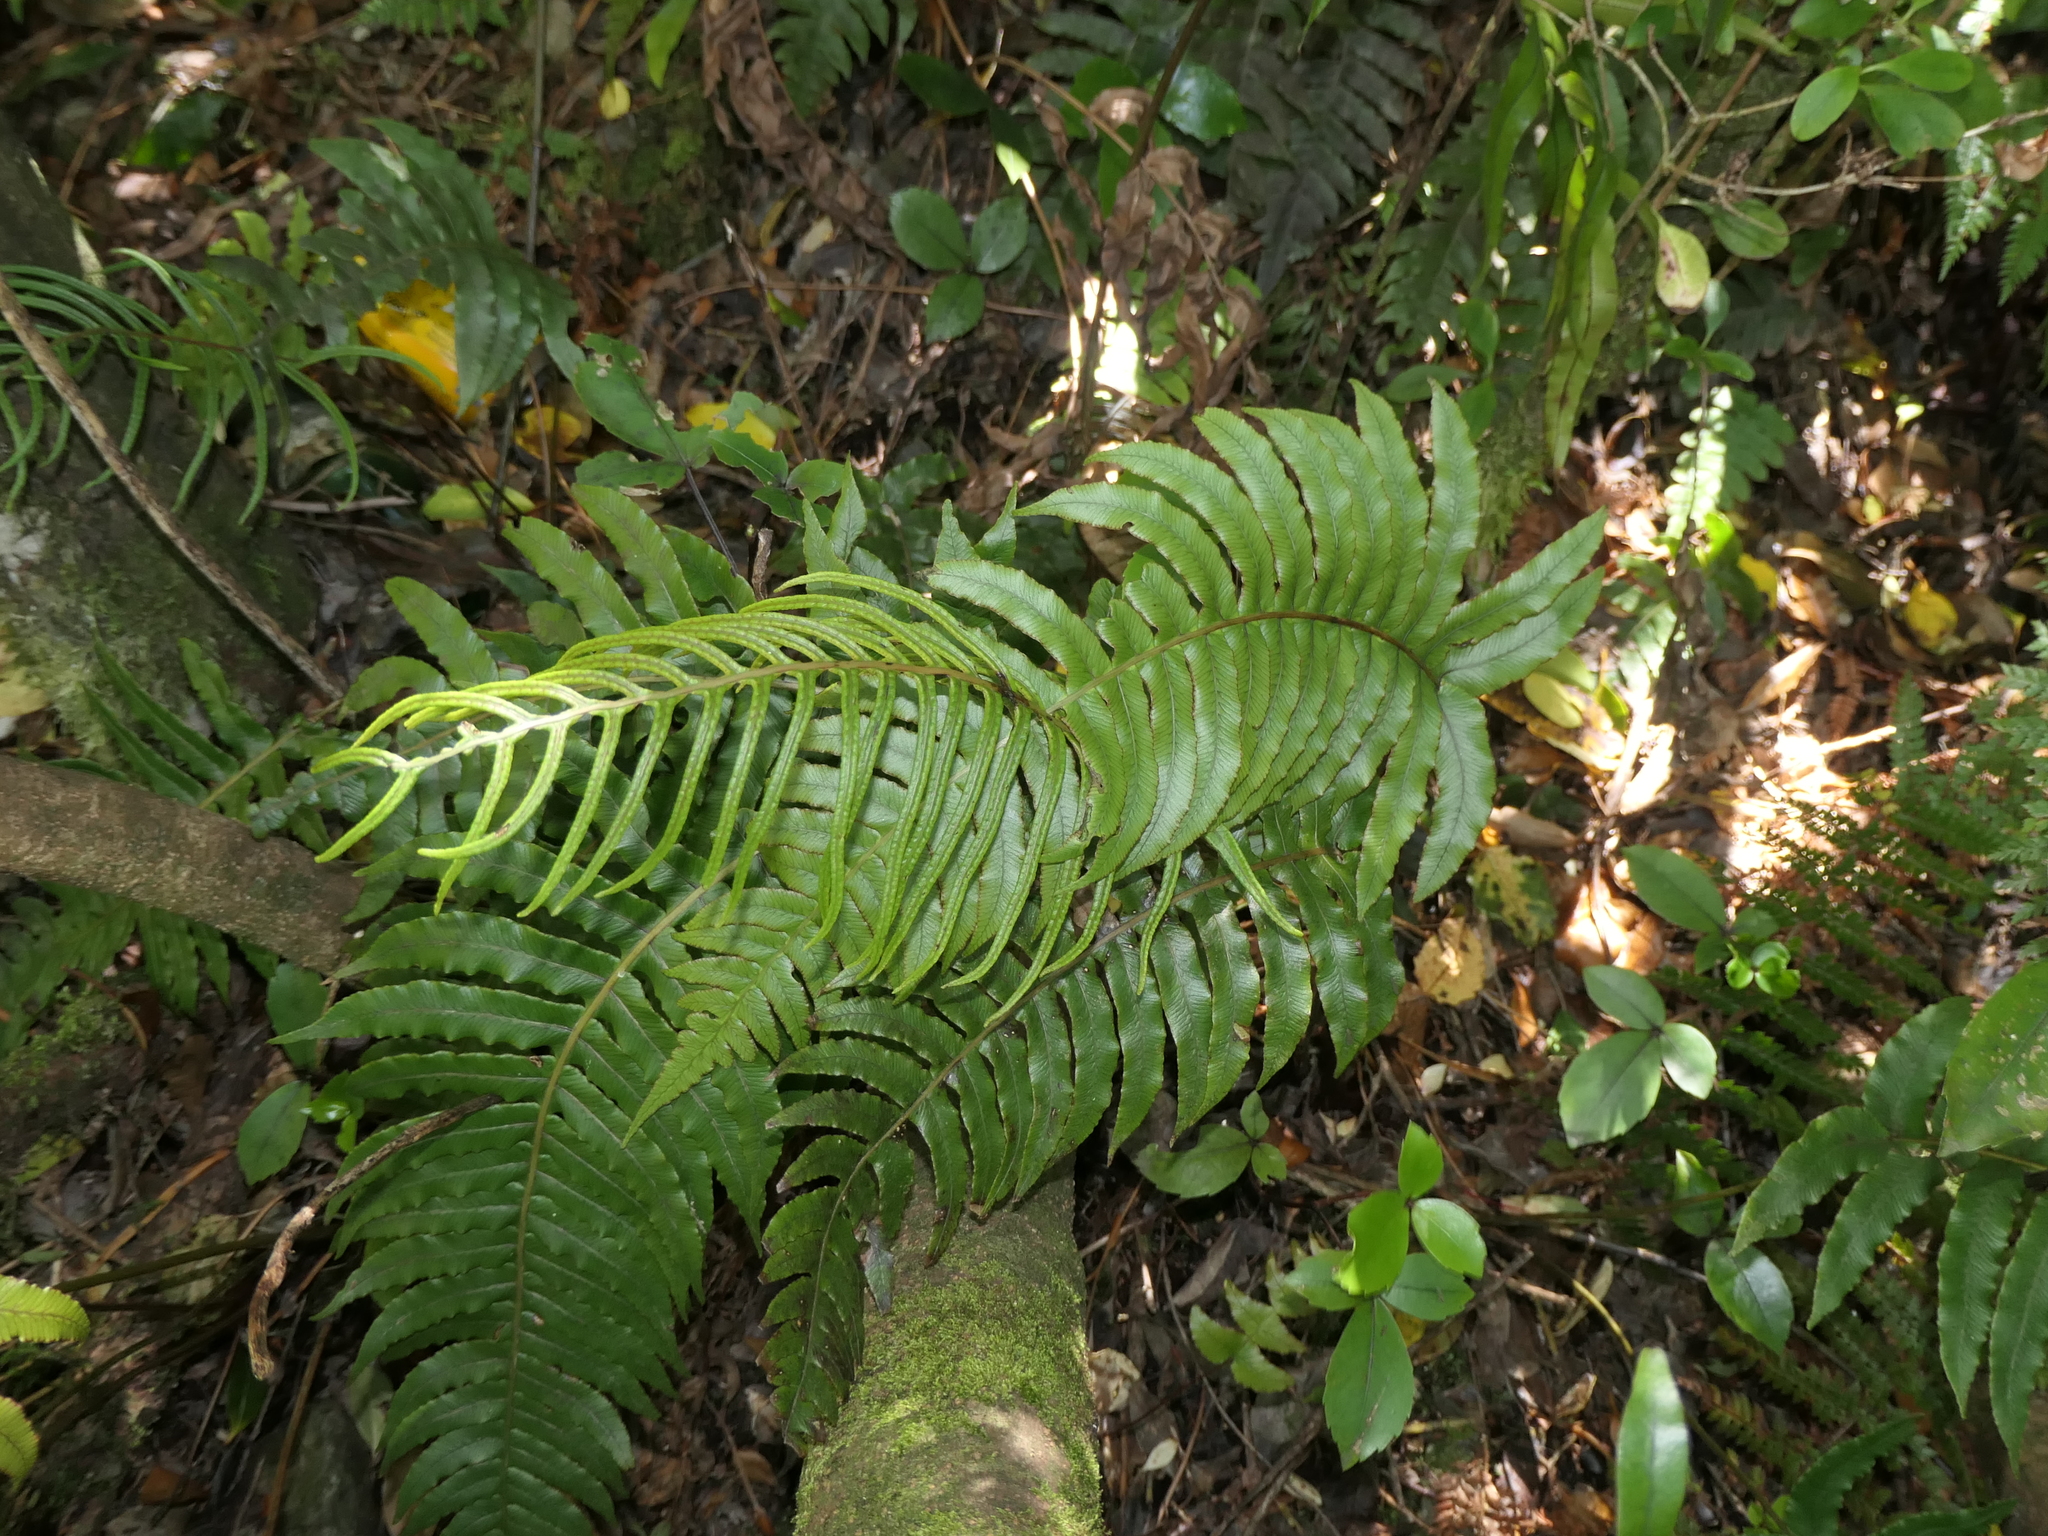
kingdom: Plantae
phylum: Tracheophyta
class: Polypodiopsida
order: Polypodiales
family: Blechnaceae
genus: Parablechnum
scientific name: Parablechnum montanum
